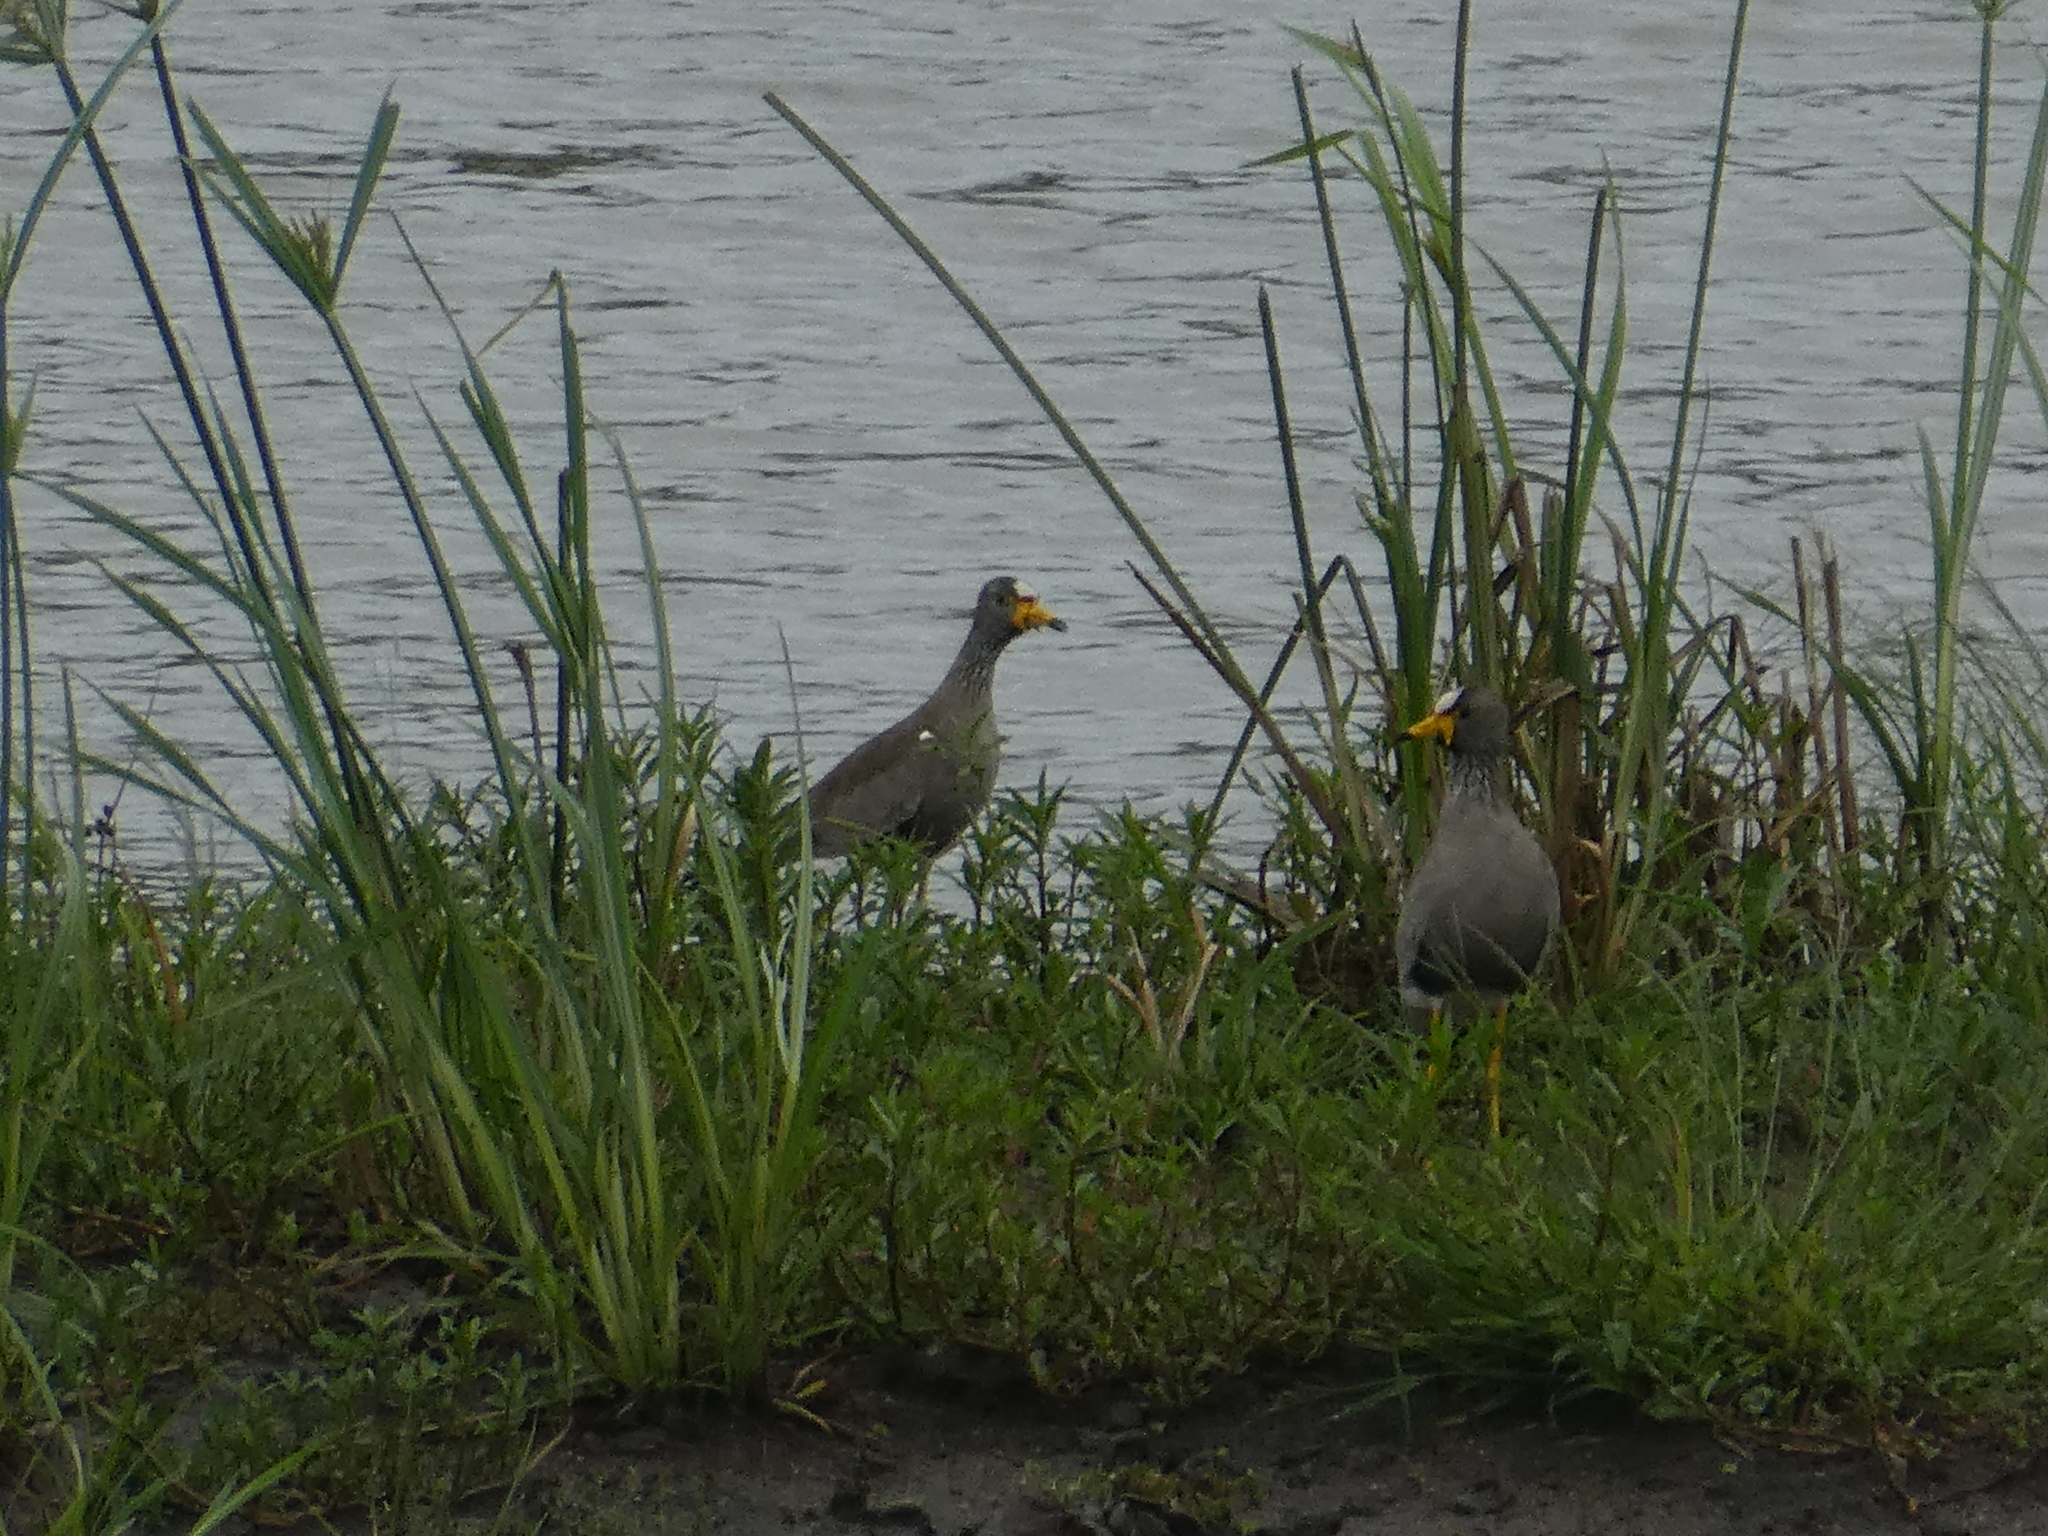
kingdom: Animalia
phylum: Chordata
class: Aves
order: Charadriiformes
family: Charadriidae
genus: Vanellus
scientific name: Vanellus senegallus
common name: African wattled lapwing
